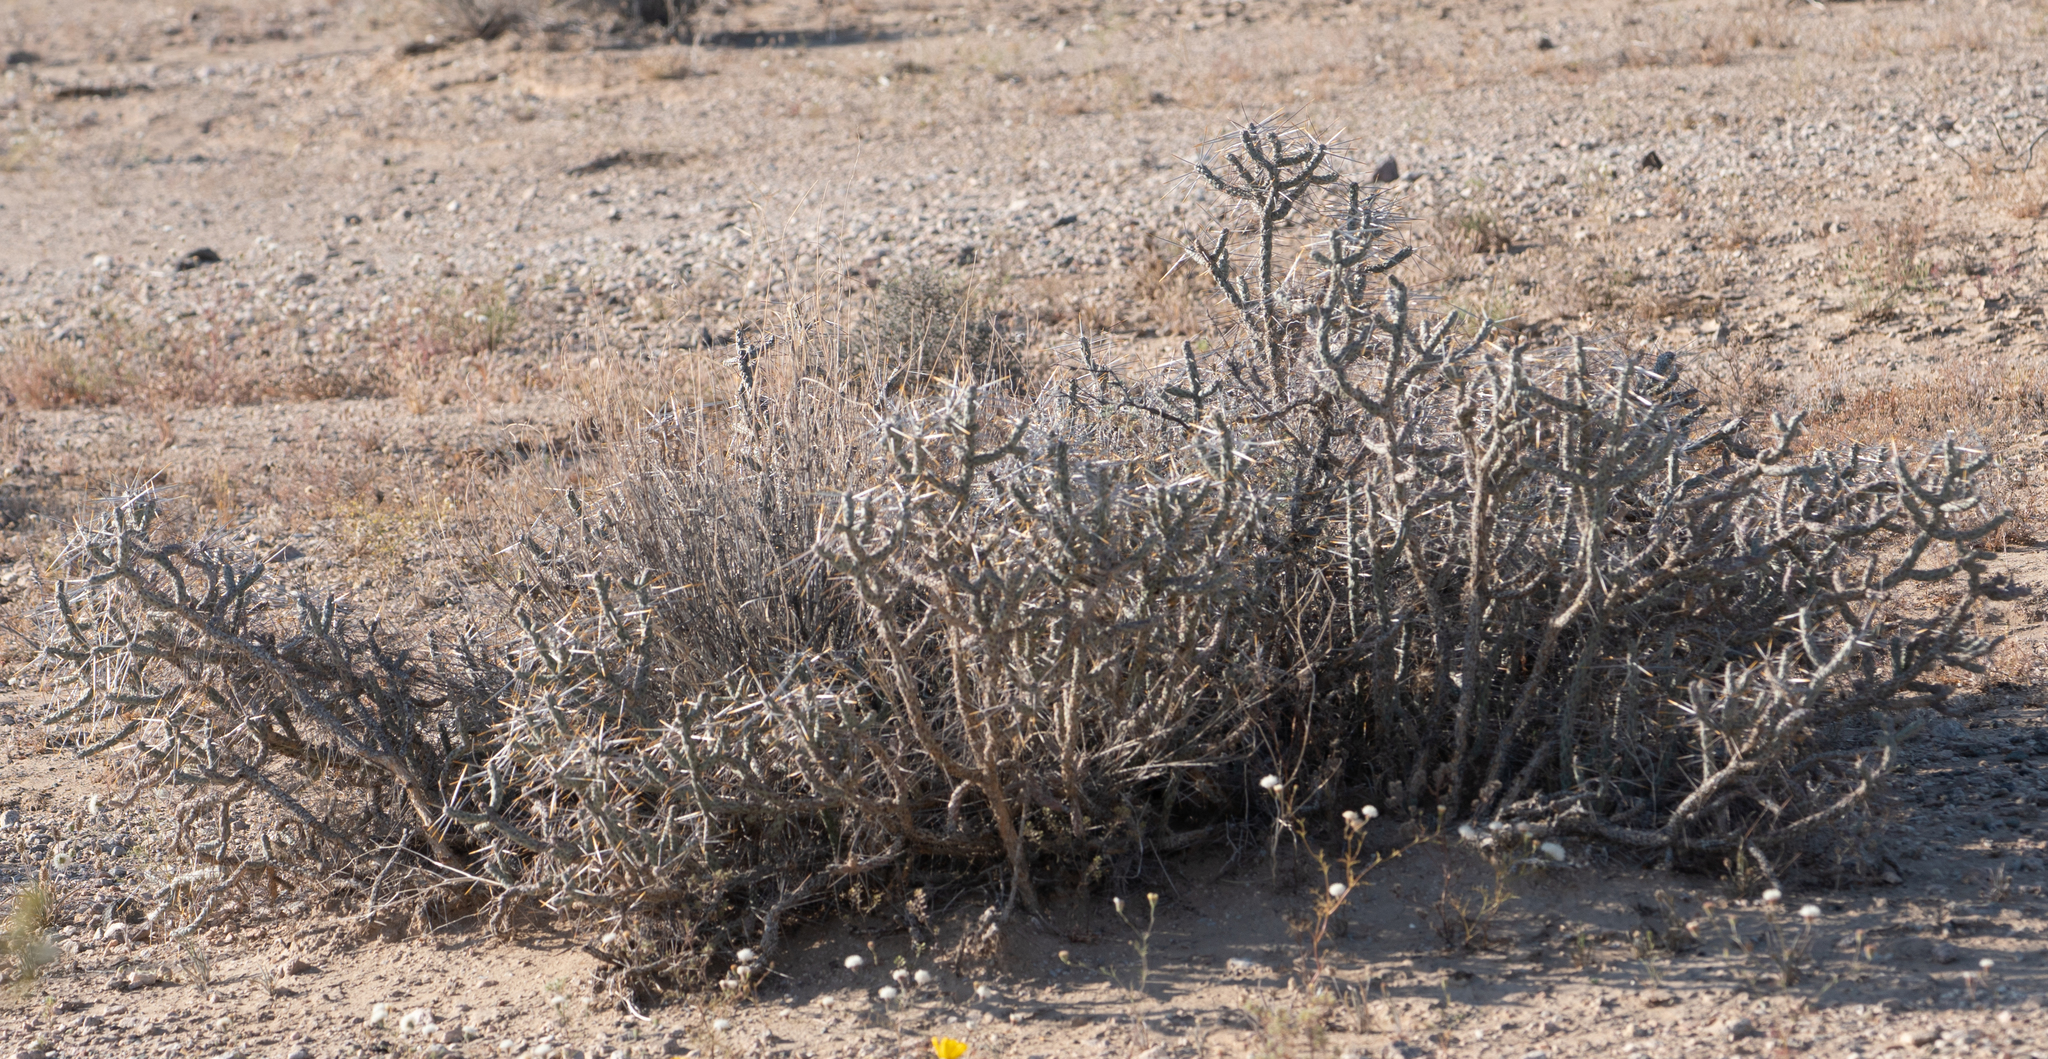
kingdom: Plantae
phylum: Tracheophyta
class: Magnoliopsida
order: Caryophyllales
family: Cactaceae
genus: Cylindropuntia
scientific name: Cylindropuntia ramosissima
